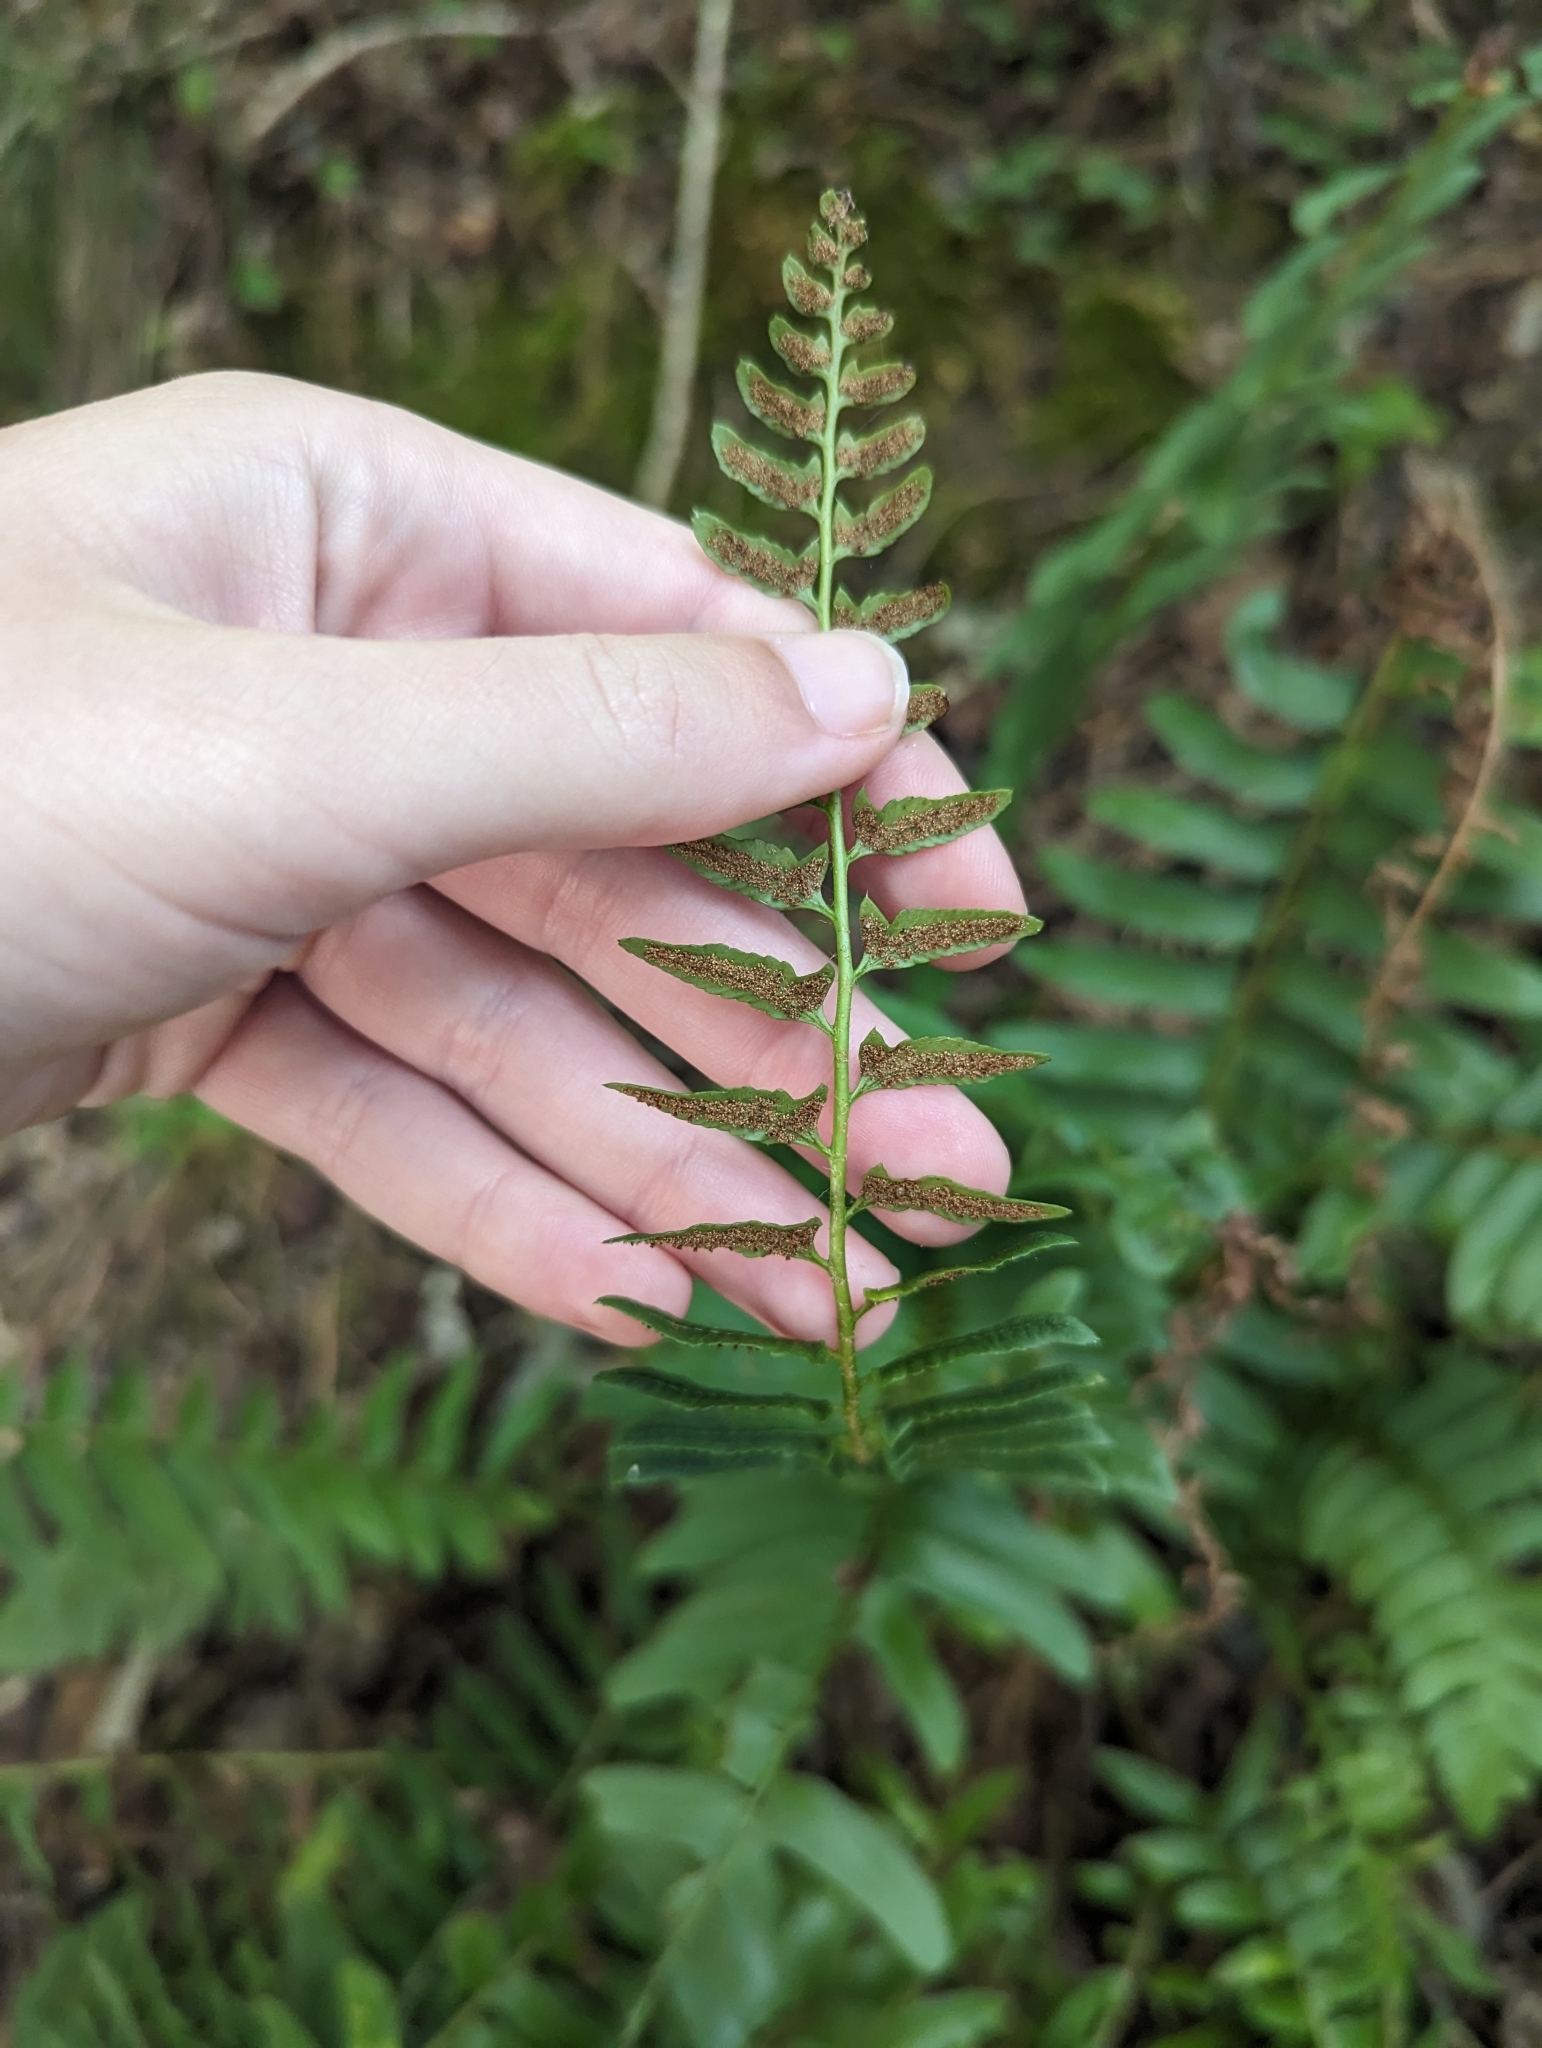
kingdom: Plantae
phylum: Tracheophyta
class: Polypodiopsida
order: Polypodiales
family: Dryopteridaceae
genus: Polystichum
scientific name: Polystichum acrostichoides
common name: Christmas fern
